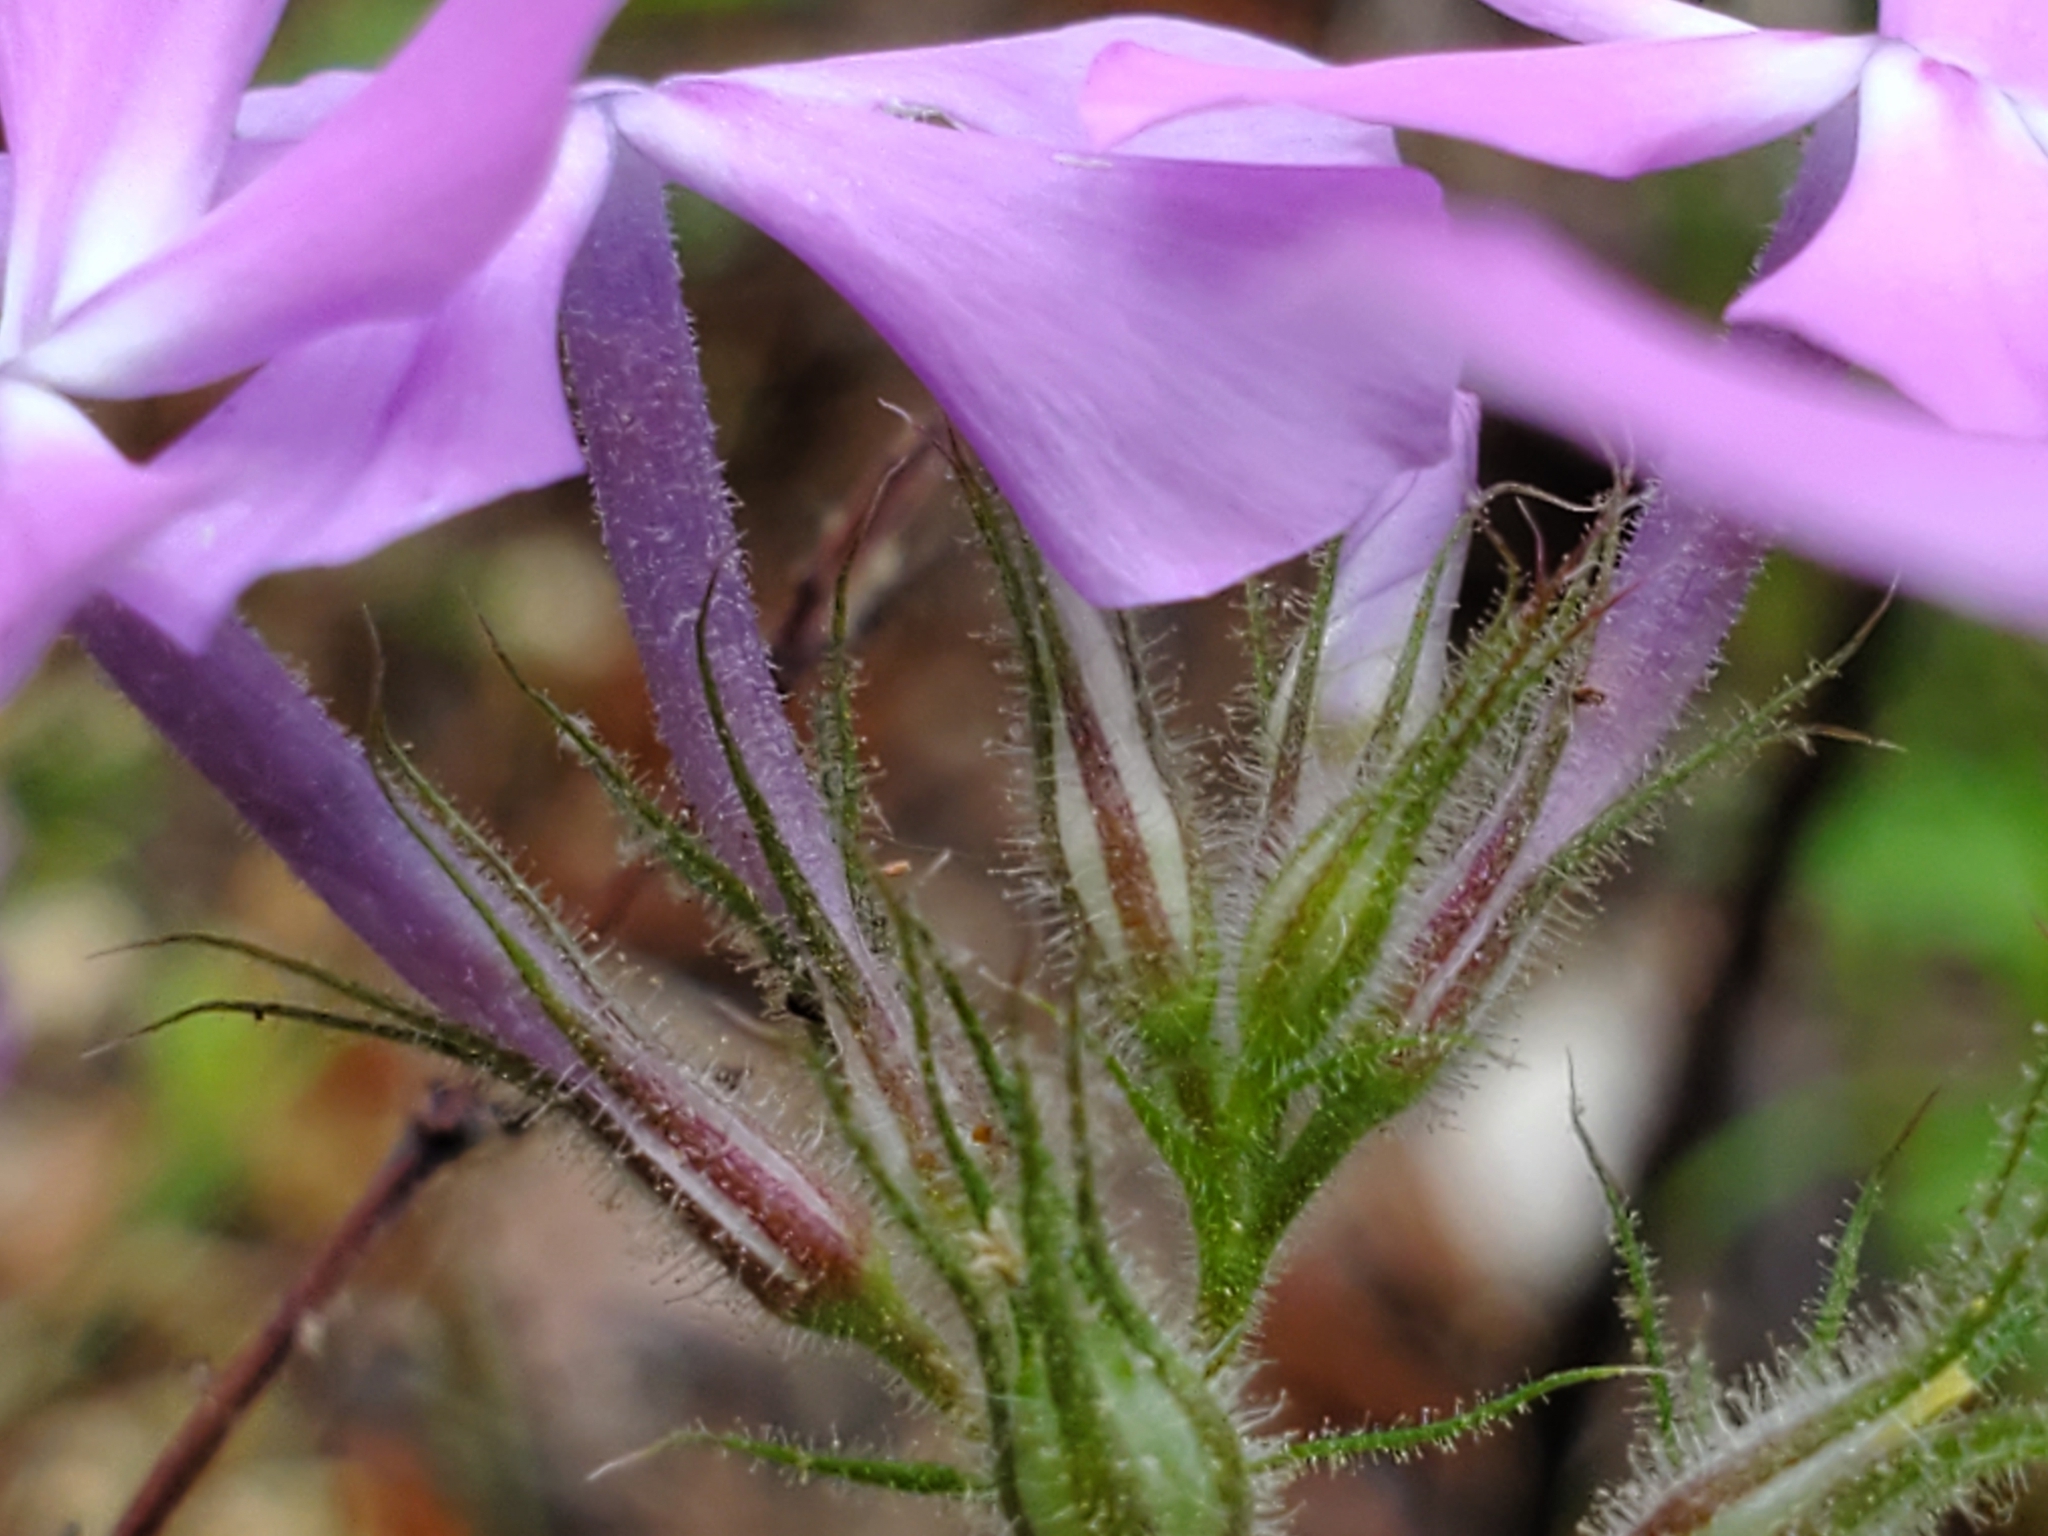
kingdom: Plantae
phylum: Tracheophyta
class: Magnoliopsida
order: Ericales
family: Polemoniaceae
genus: Phlox
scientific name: Phlox pilosa
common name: Prairie phlox
